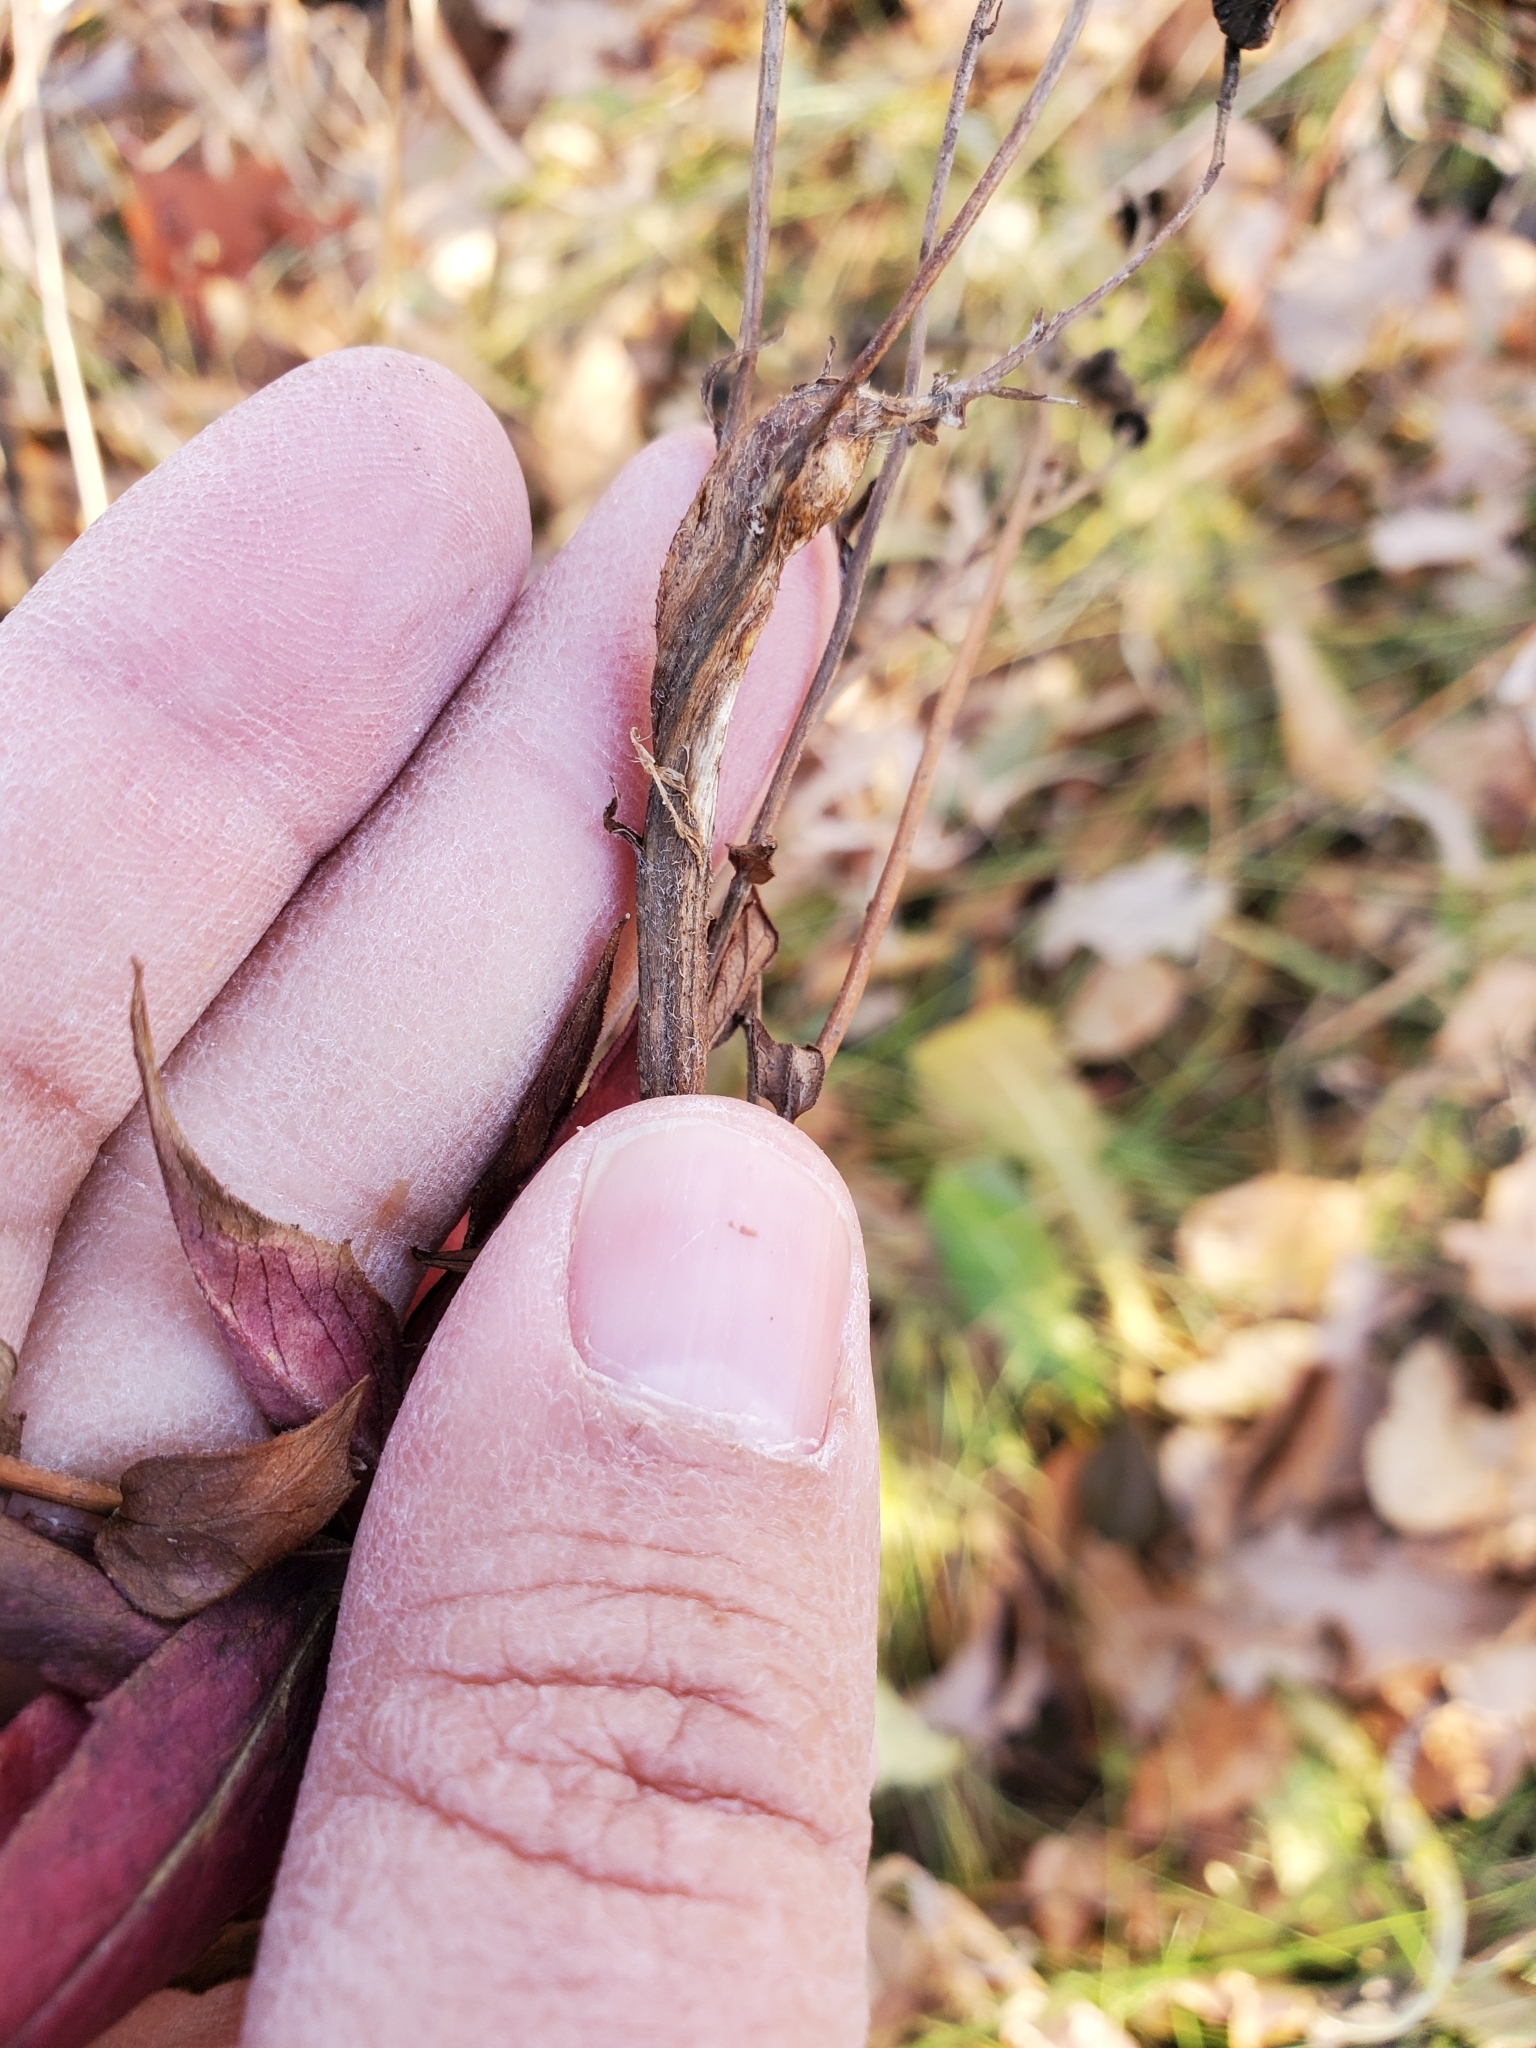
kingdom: Animalia
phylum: Arthropoda
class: Insecta
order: Hymenoptera
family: Cynipidae
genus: Aulacidea
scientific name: Aulacidea hieracii
